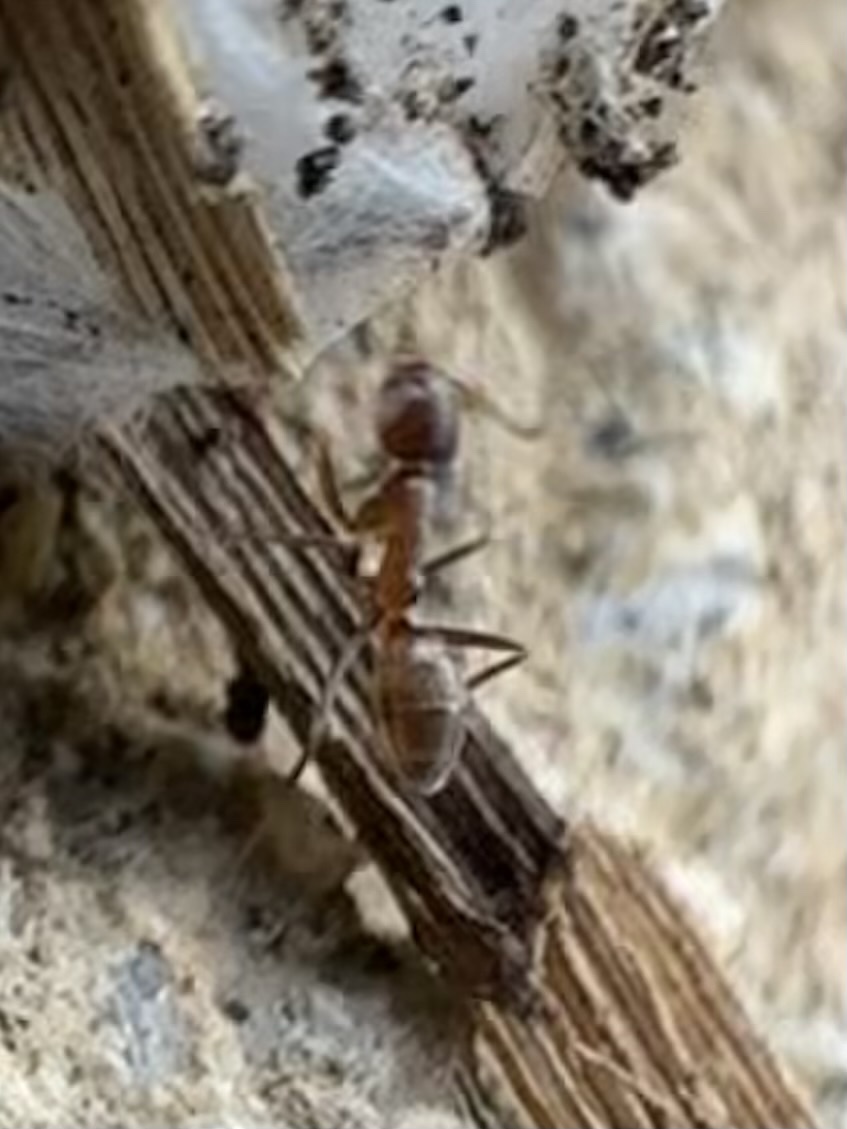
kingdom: Animalia
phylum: Arthropoda
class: Insecta
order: Hymenoptera
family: Formicidae
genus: Linepithema
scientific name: Linepithema humile
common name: Argentine ant
